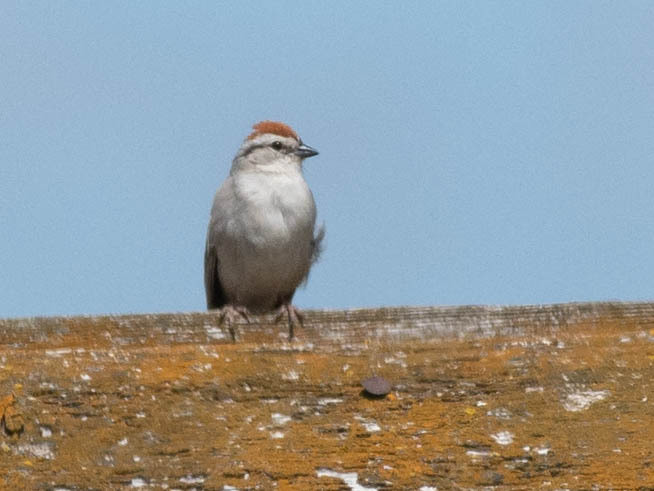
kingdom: Animalia
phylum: Chordata
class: Aves
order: Passeriformes
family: Passerellidae
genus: Spizella
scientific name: Spizella passerina
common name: Chipping sparrow
